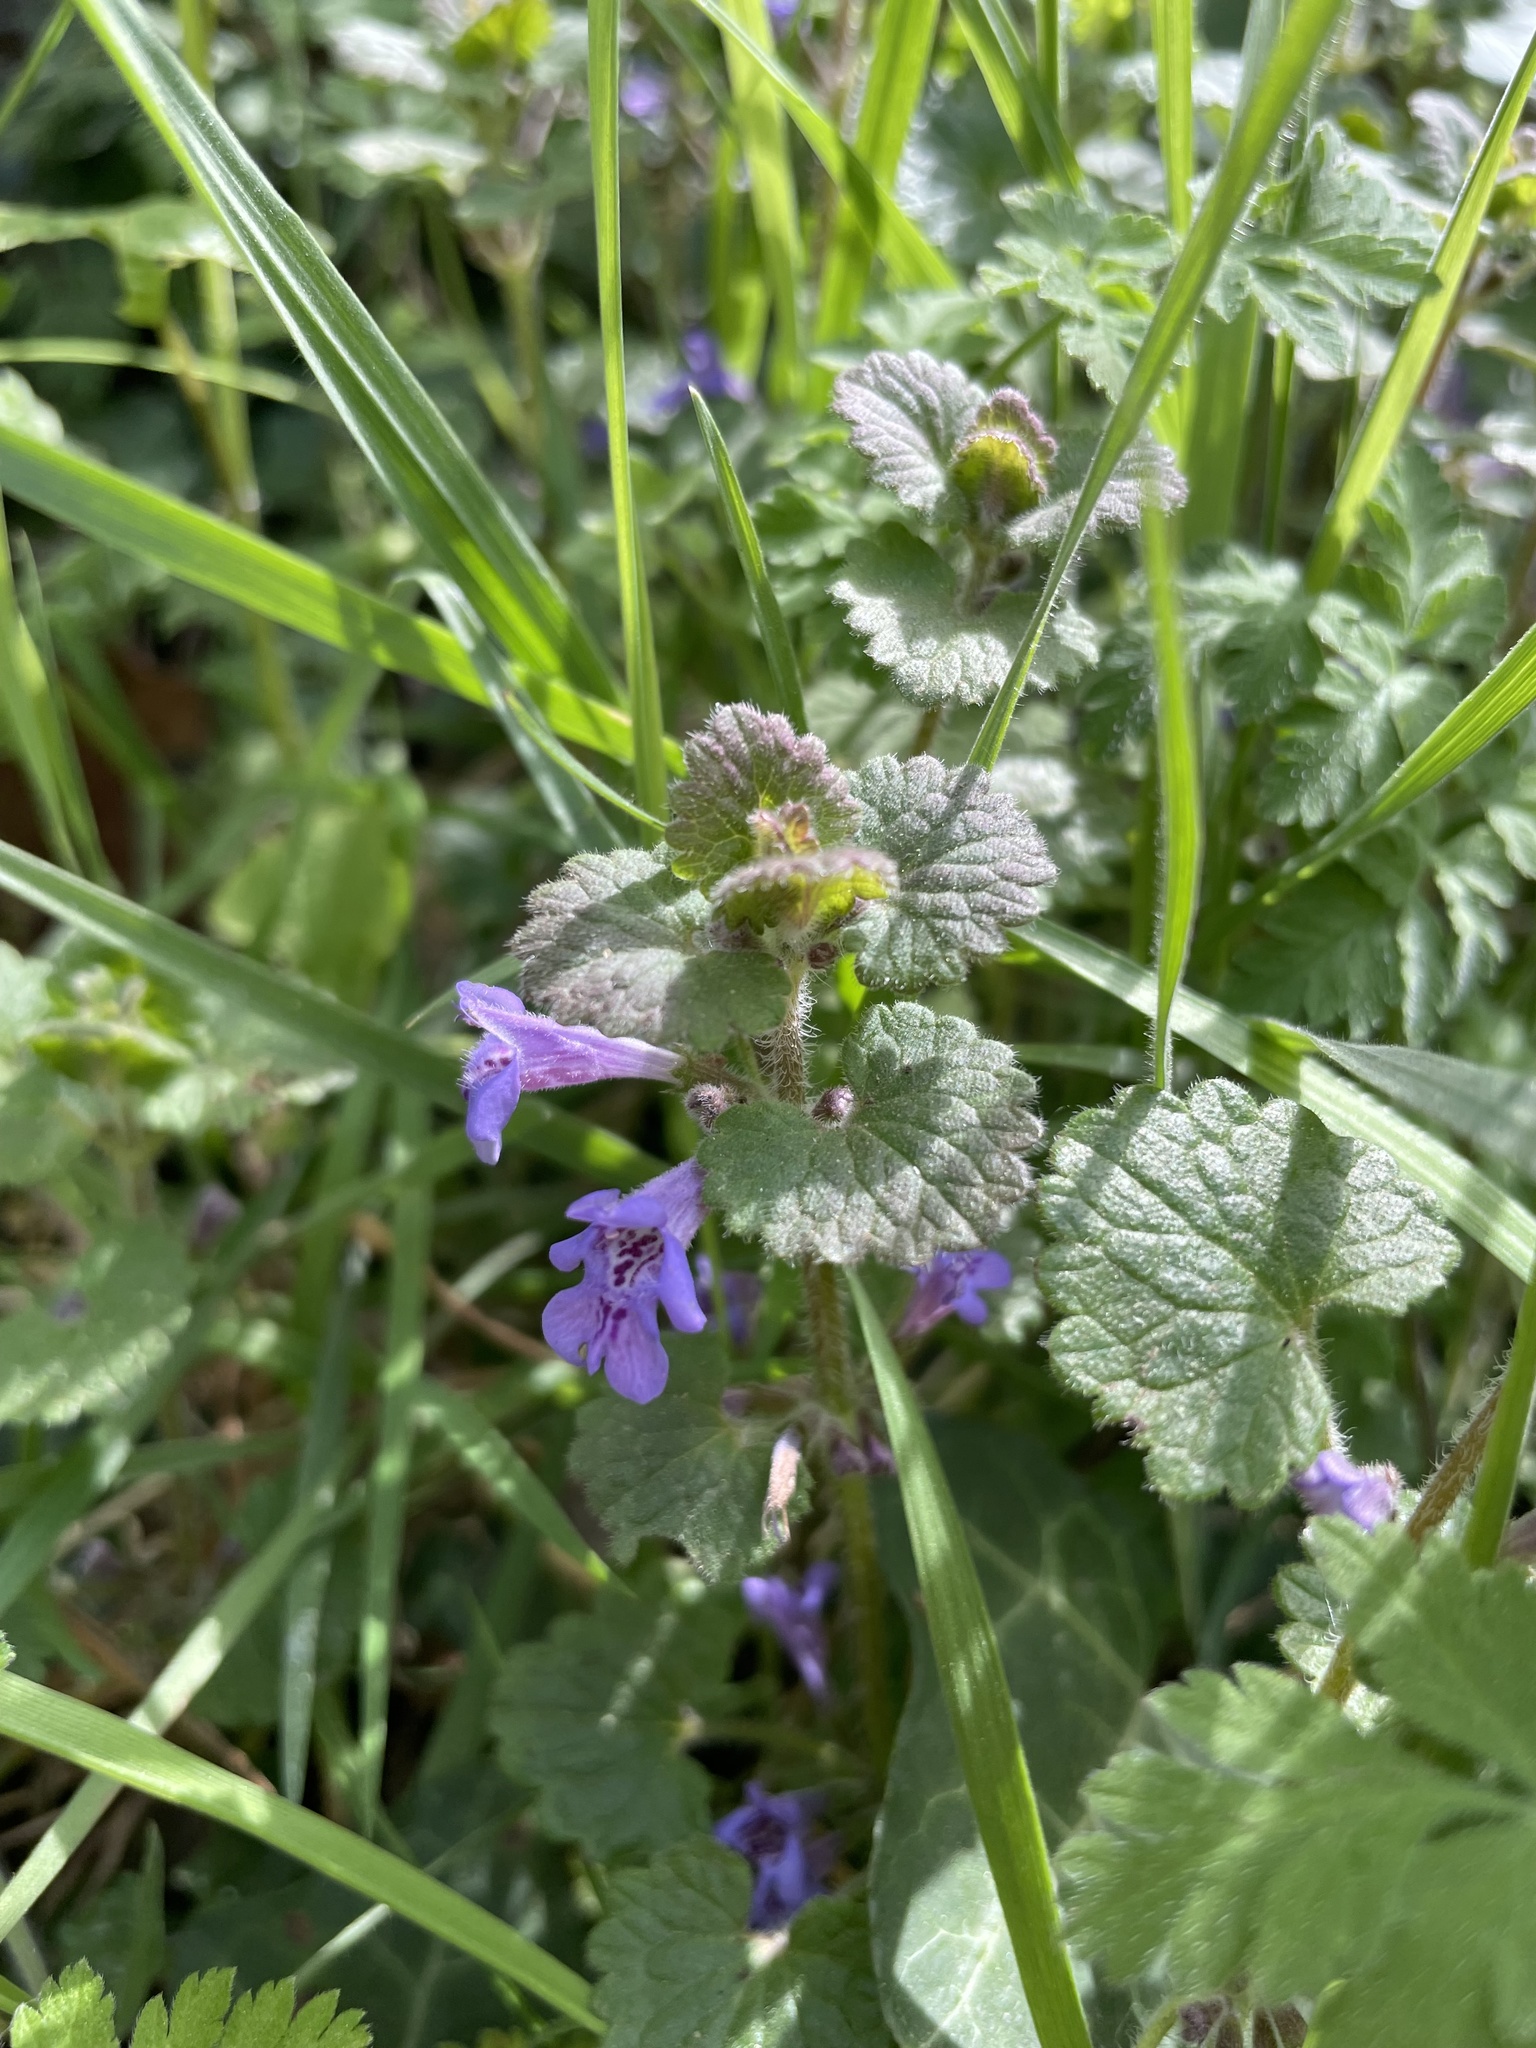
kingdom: Plantae
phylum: Tracheophyta
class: Magnoliopsida
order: Lamiales
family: Lamiaceae
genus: Glechoma
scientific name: Glechoma hederacea
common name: Ground ivy
